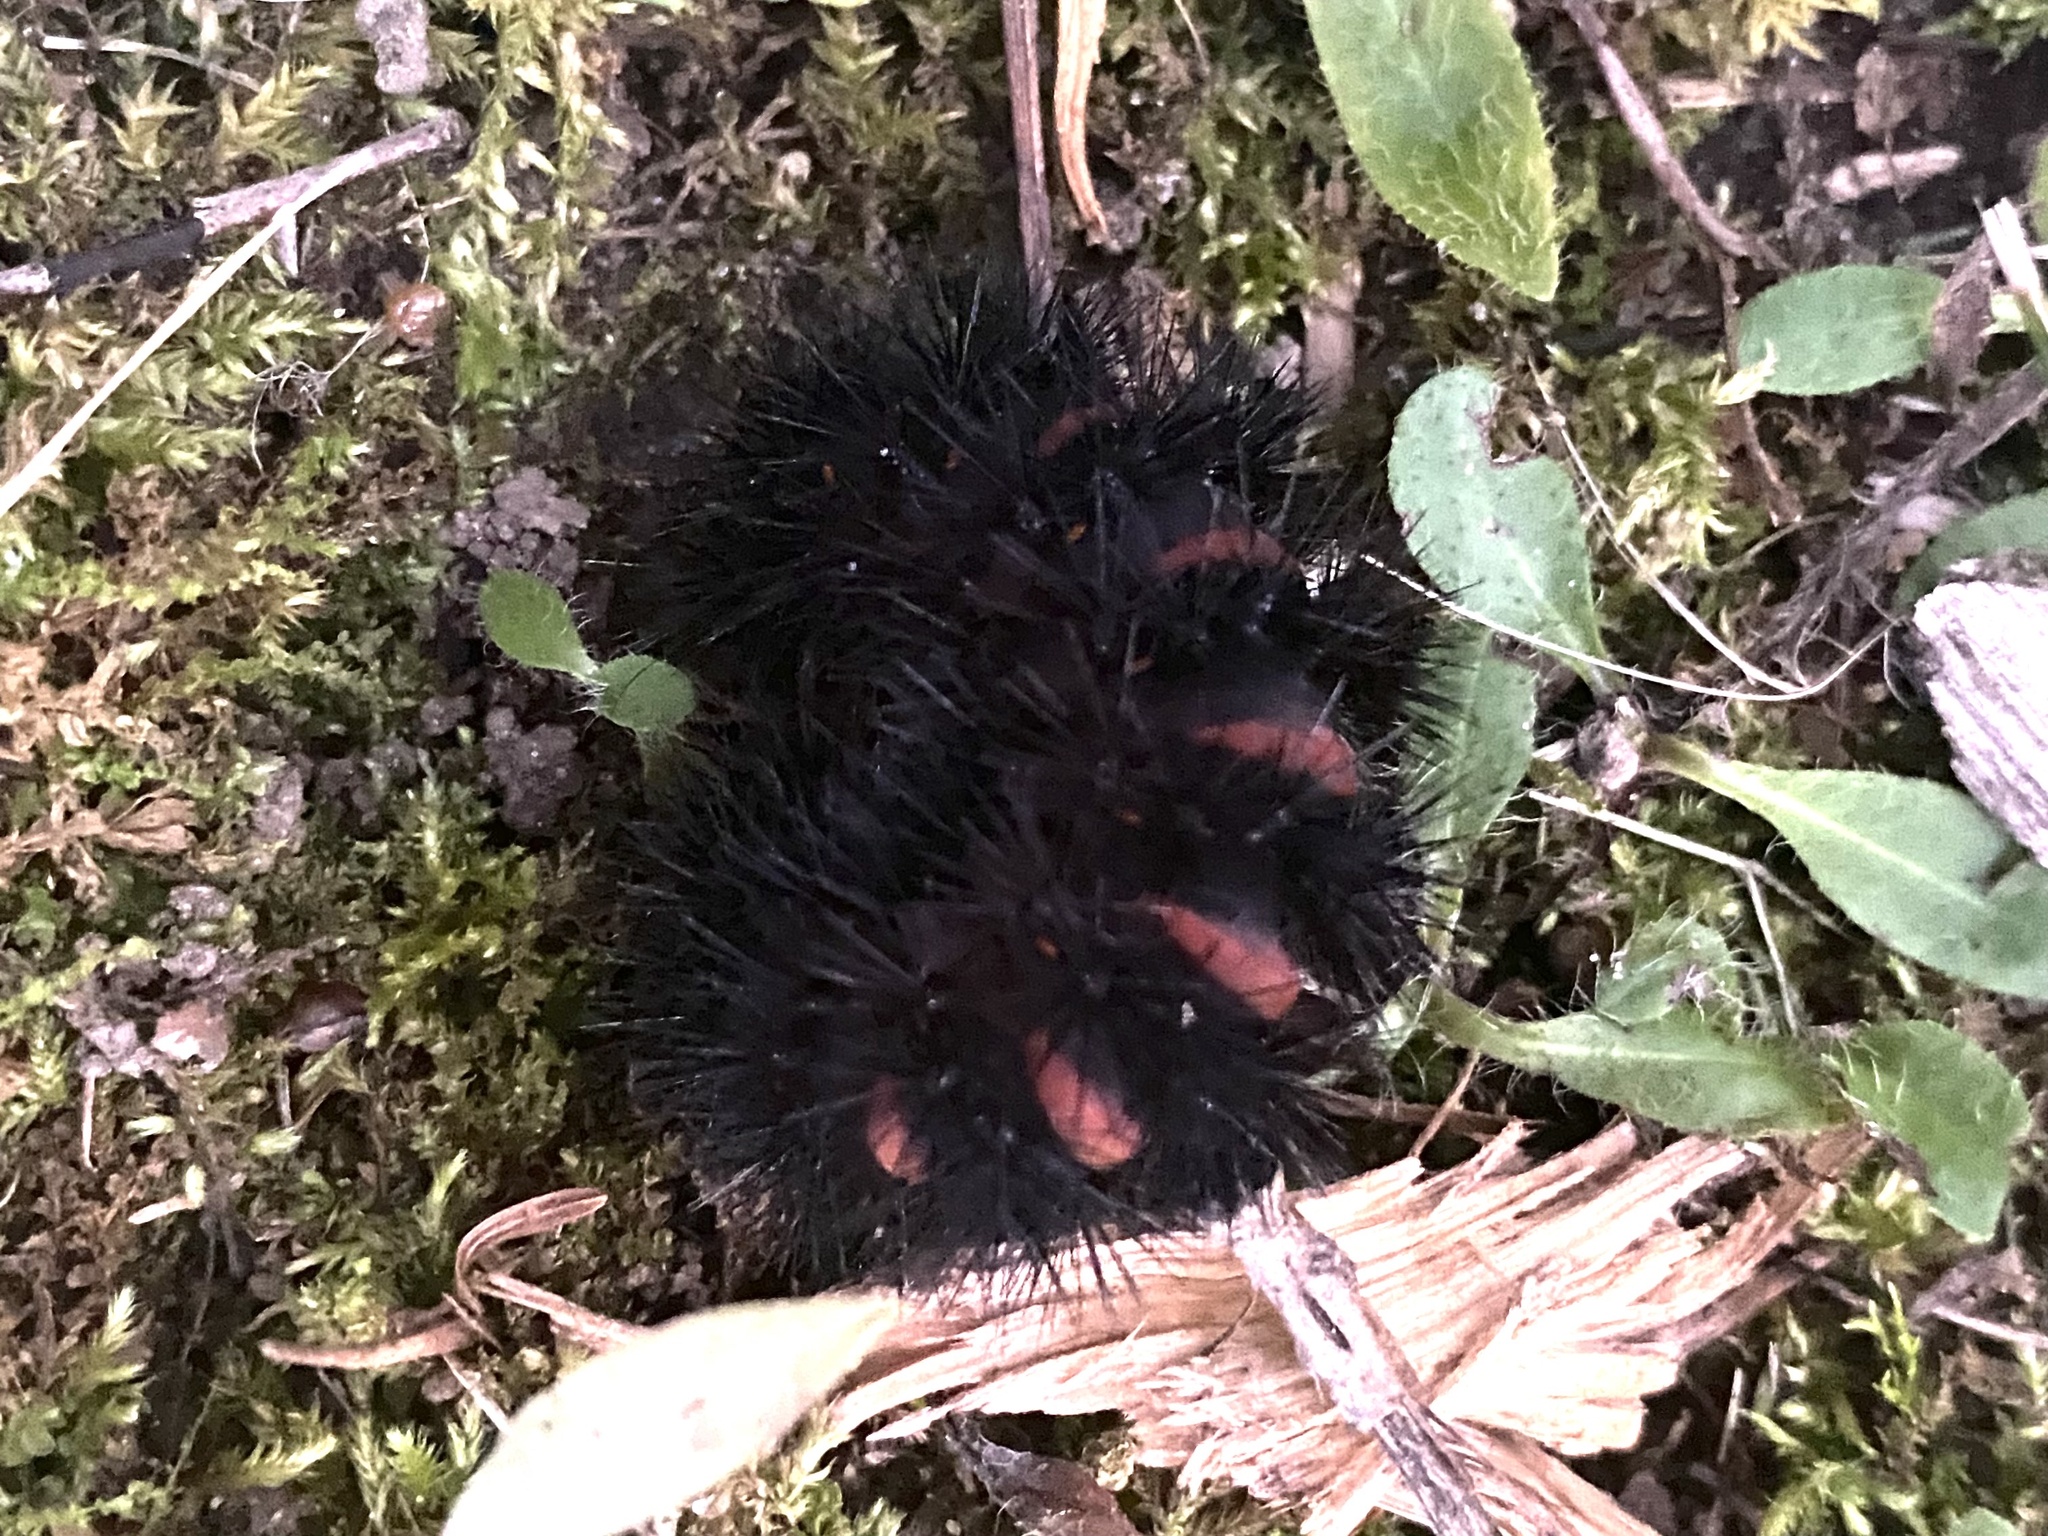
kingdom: Animalia
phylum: Arthropoda
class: Insecta
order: Lepidoptera
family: Erebidae
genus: Hypercompe
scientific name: Hypercompe scribonia
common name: Giant leopard moth
